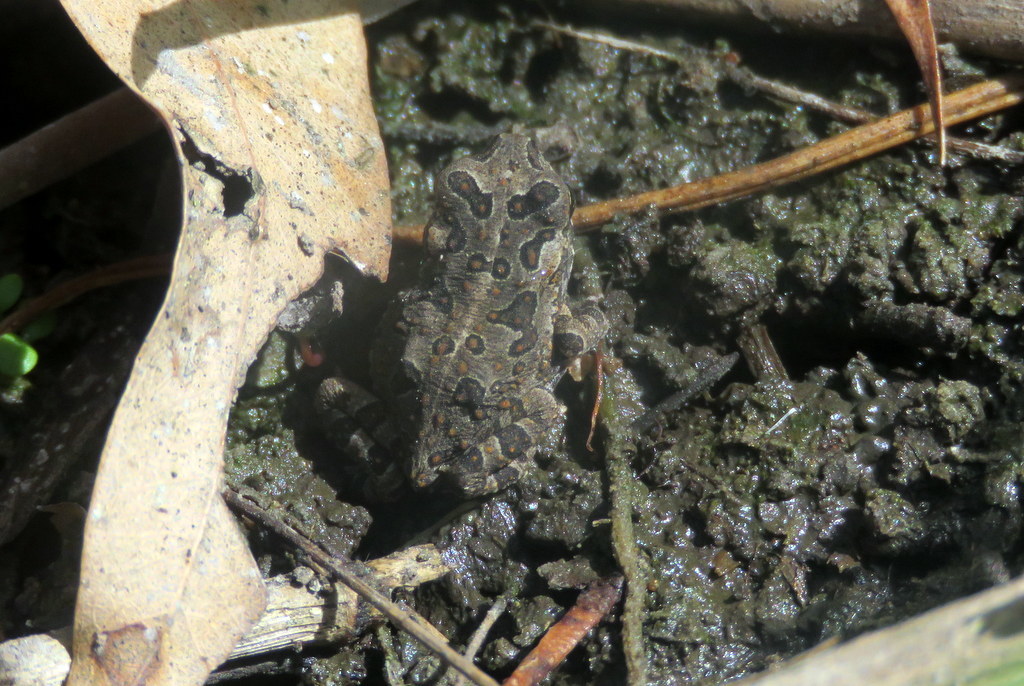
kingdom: Animalia
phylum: Chordata
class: Amphibia
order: Anura
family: Bufonidae
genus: Rhinella
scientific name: Rhinella arenarum
